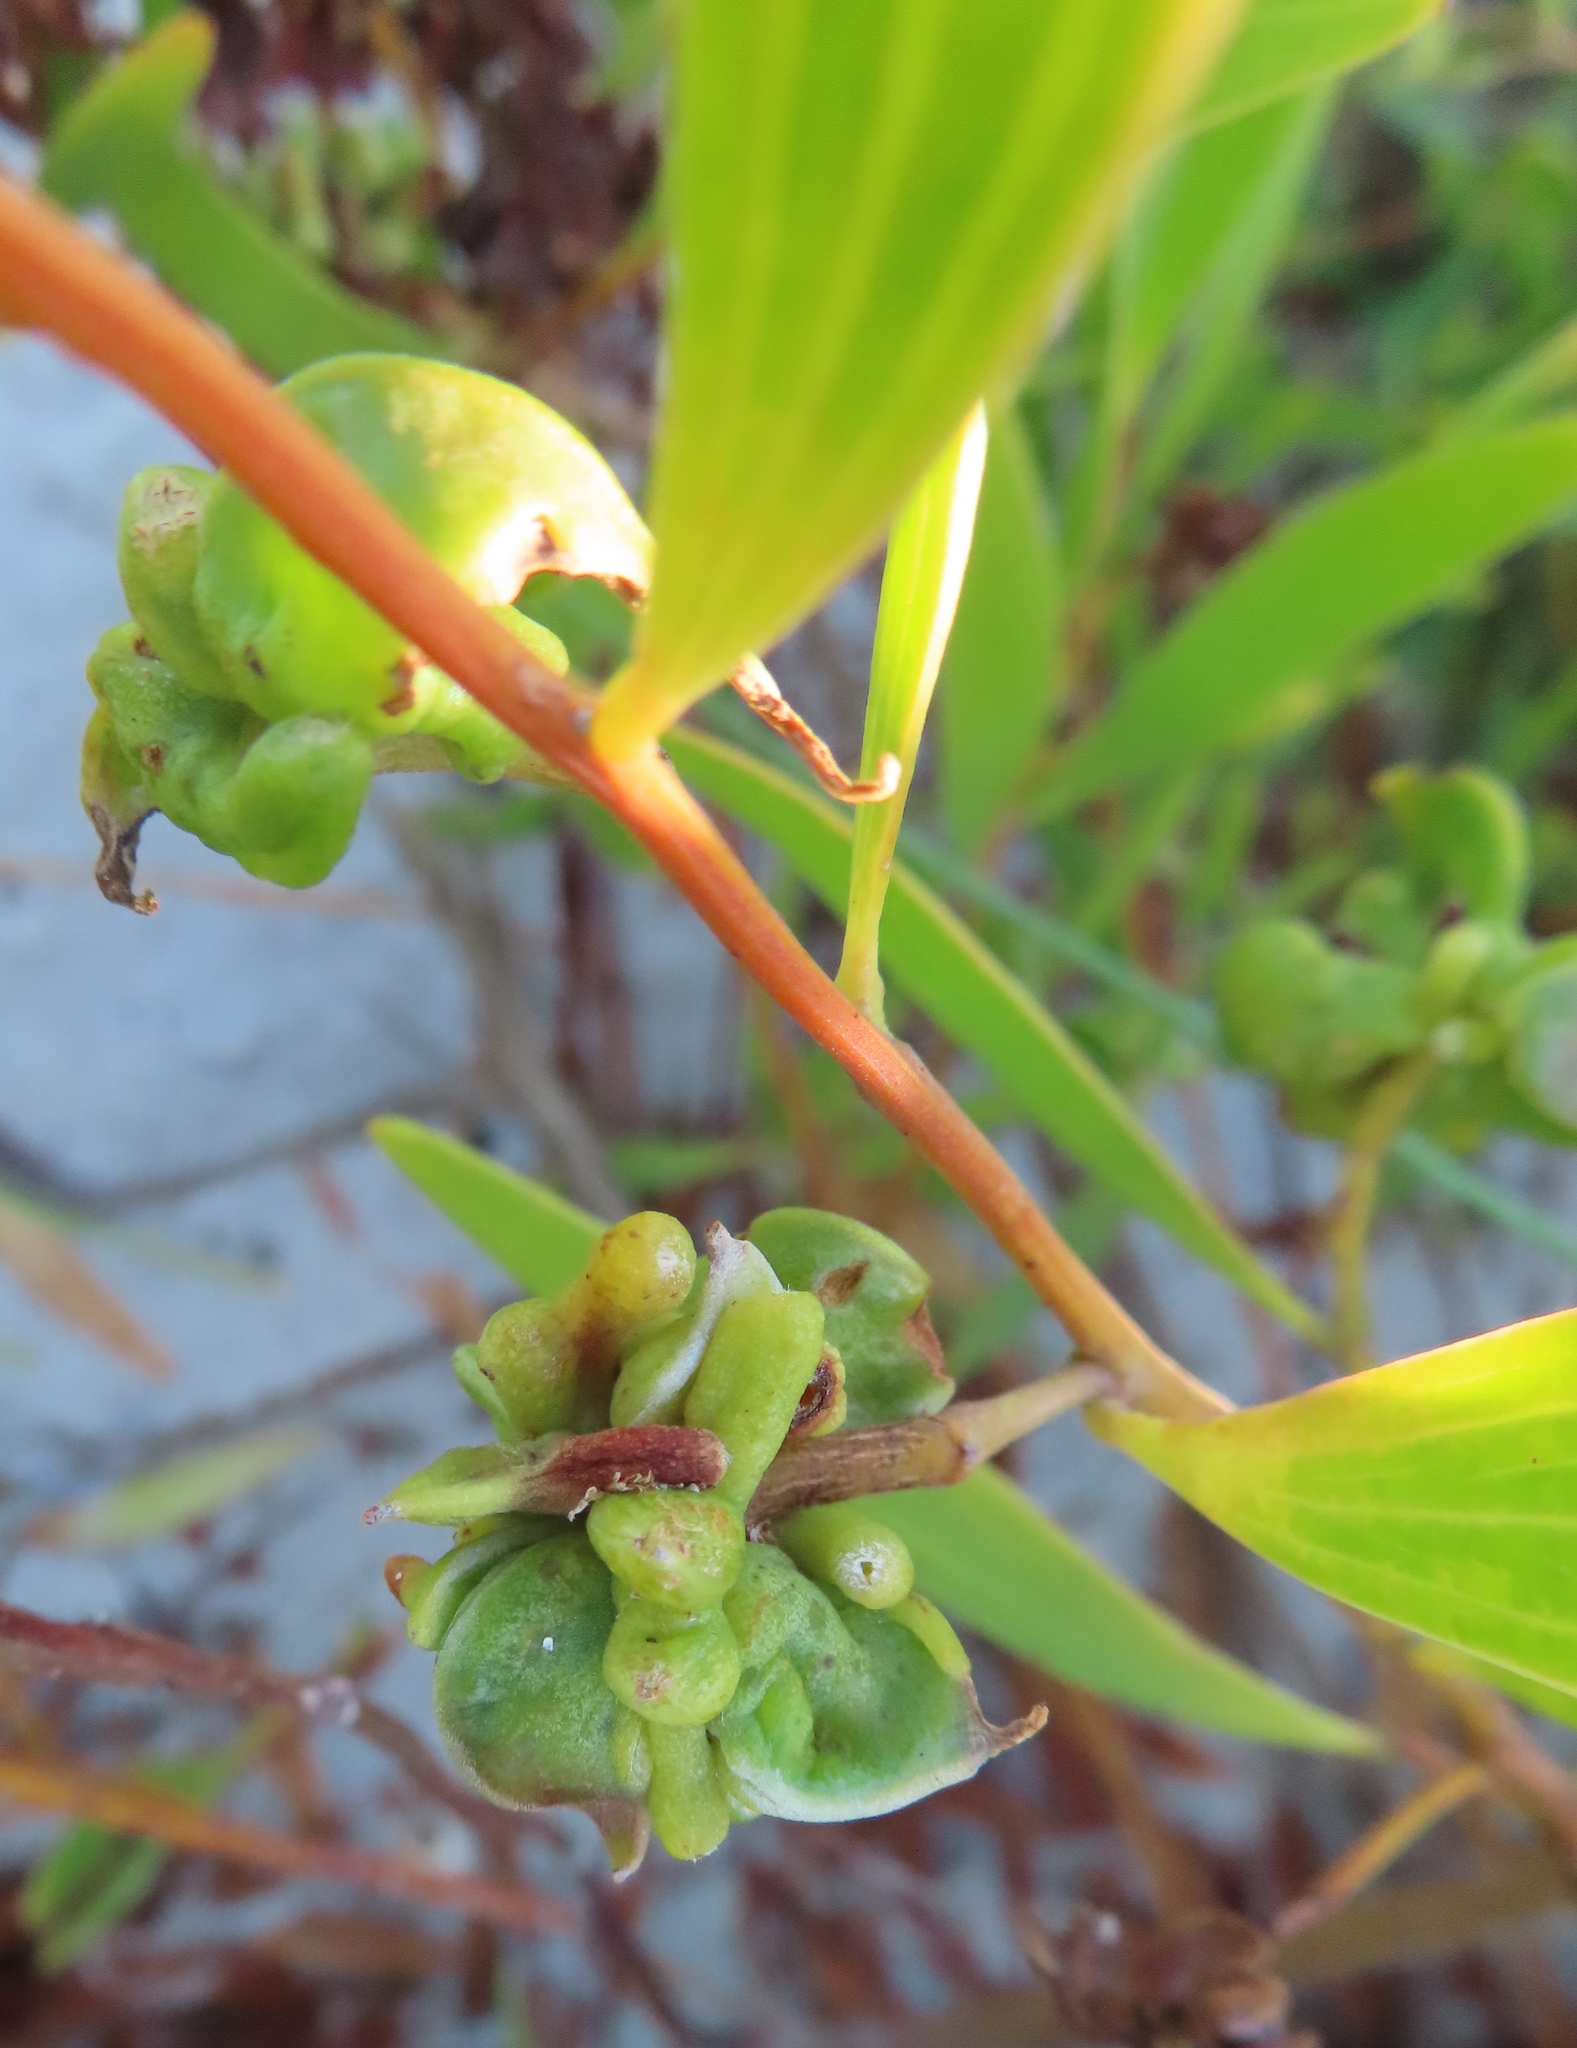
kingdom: Animalia
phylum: Arthropoda
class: Insecta
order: Diptera
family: Cecidomyiidae
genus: Dasineura
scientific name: Dasineura dielsi
